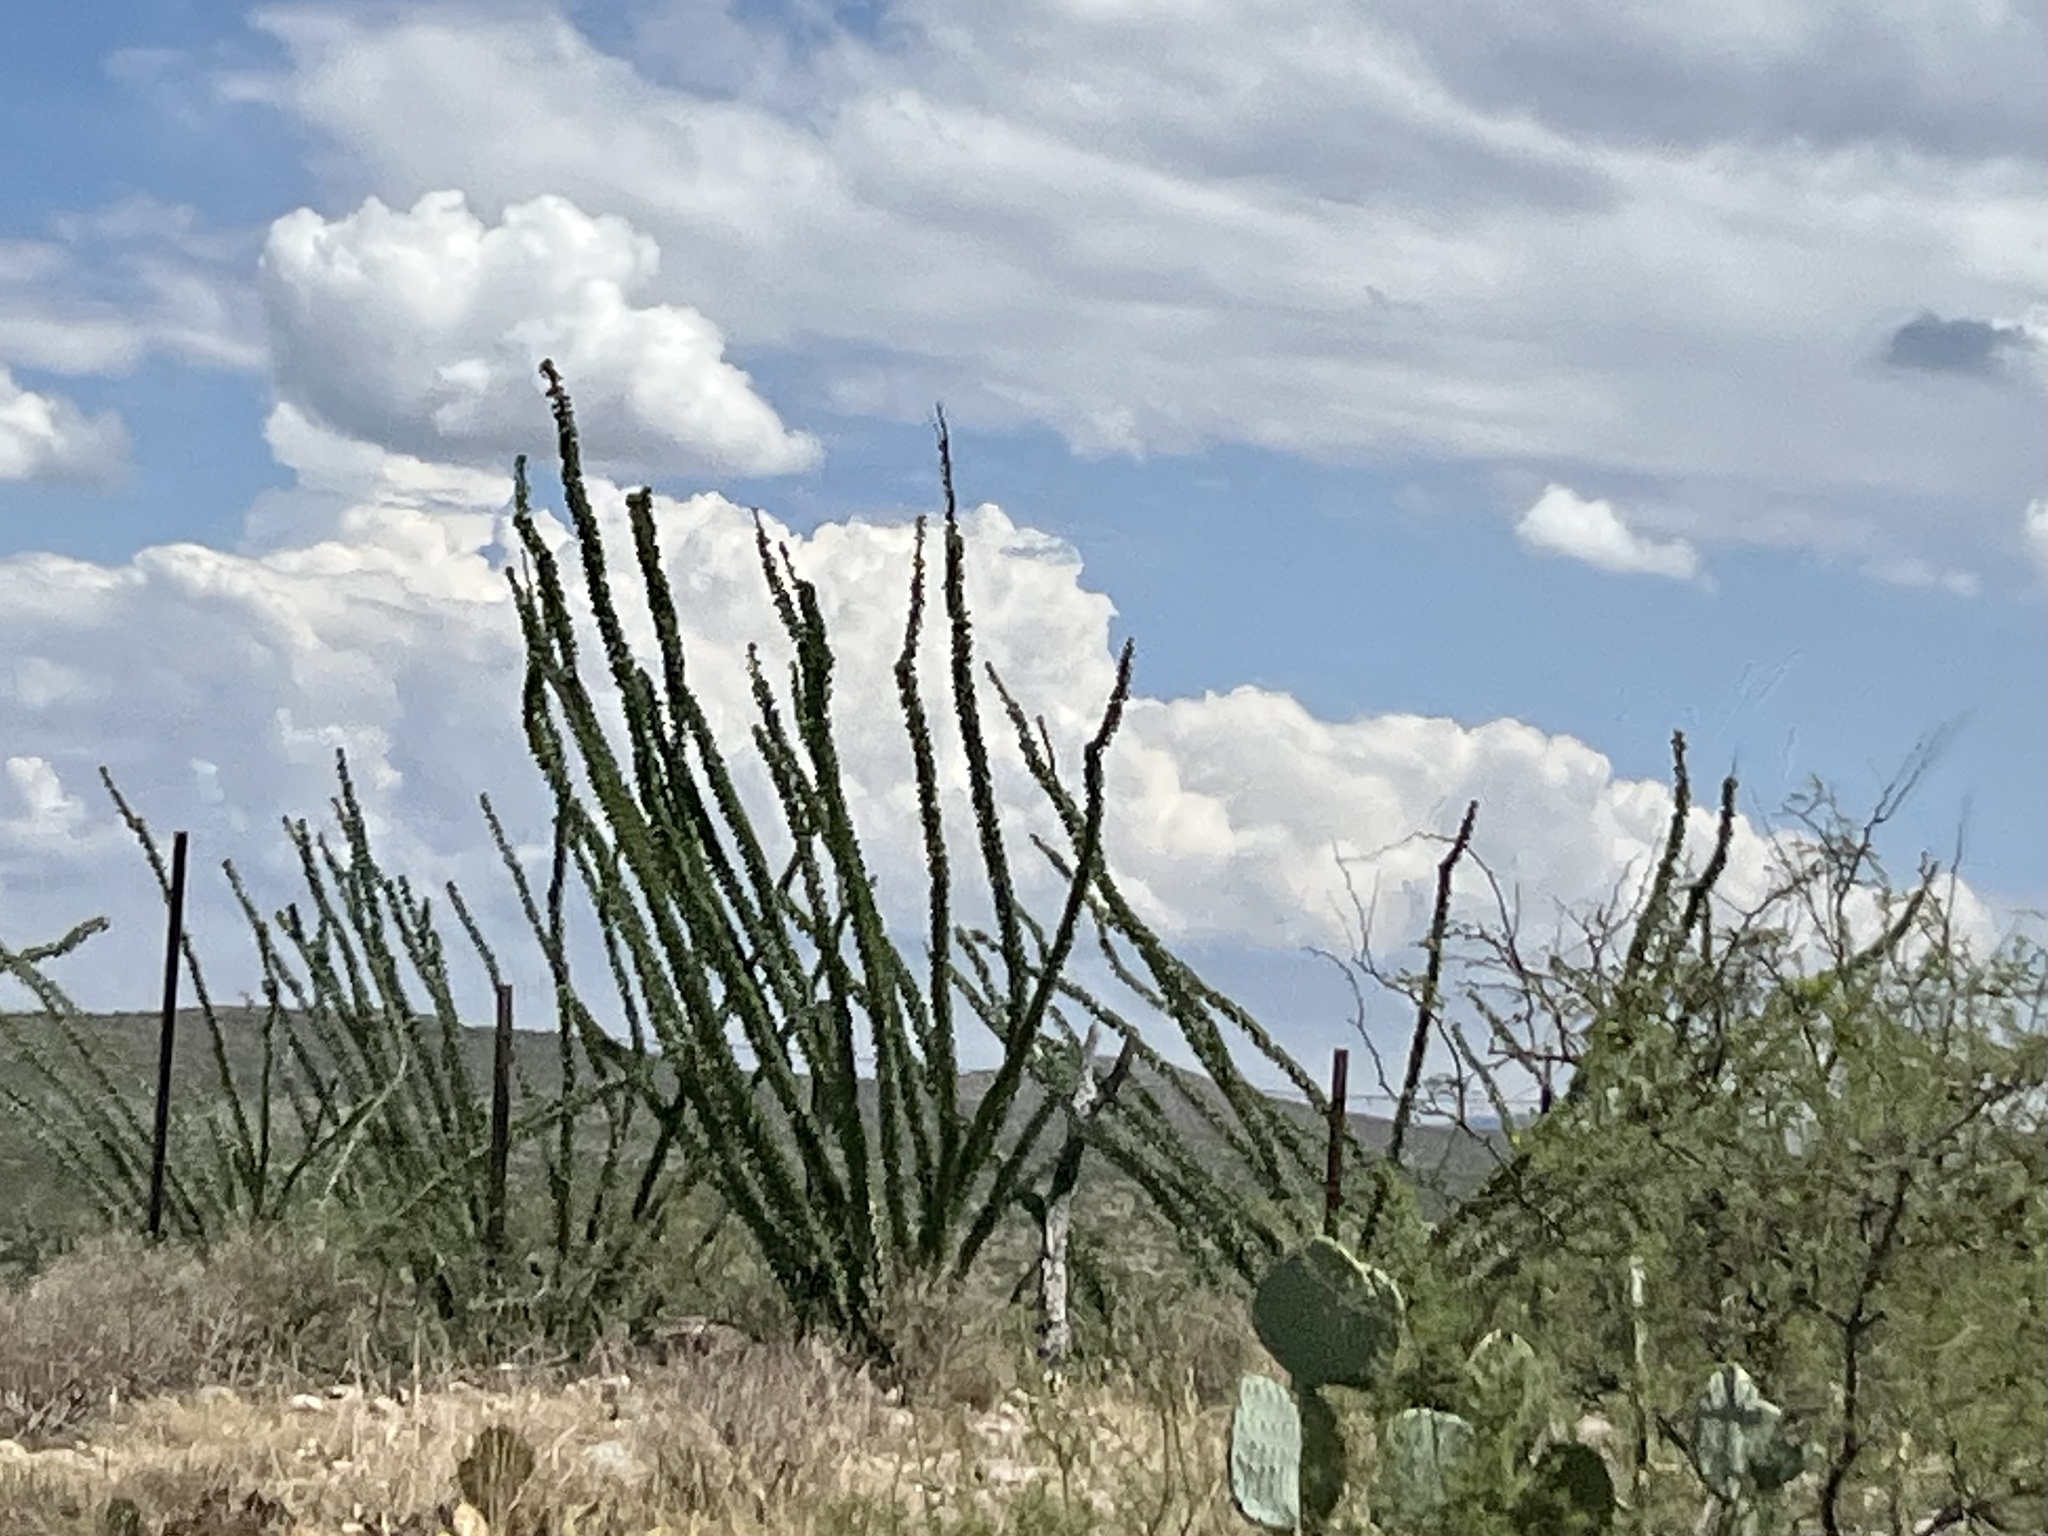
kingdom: Plantae
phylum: Tracheophyta
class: Magnoliopsida
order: Ericales
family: Fouquieriaceae
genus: Fouquieria
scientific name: Fouquieria splendens
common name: Vine-cactus
